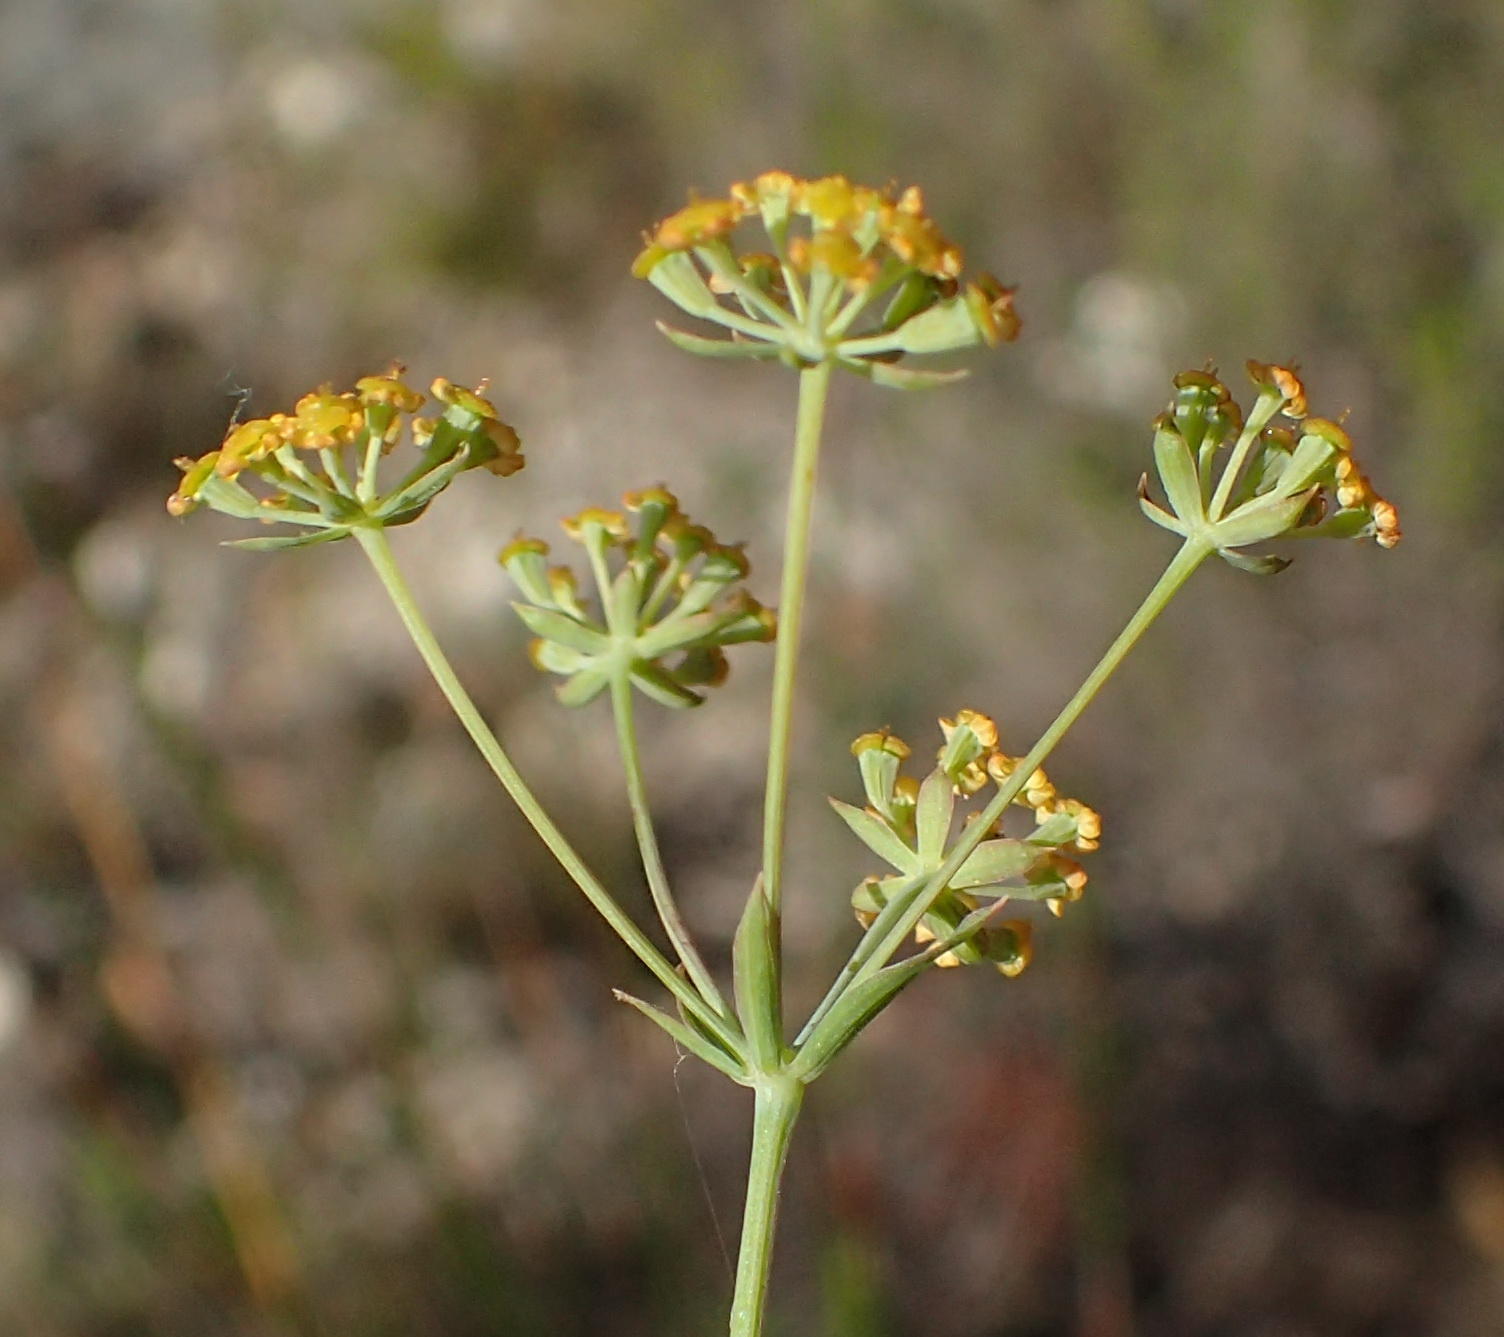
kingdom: Plantae
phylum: Tracheophyta
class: Magnoliopsida
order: Apiales
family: Apiaceae
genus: Bupleurum
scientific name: Bupleurum mundii
